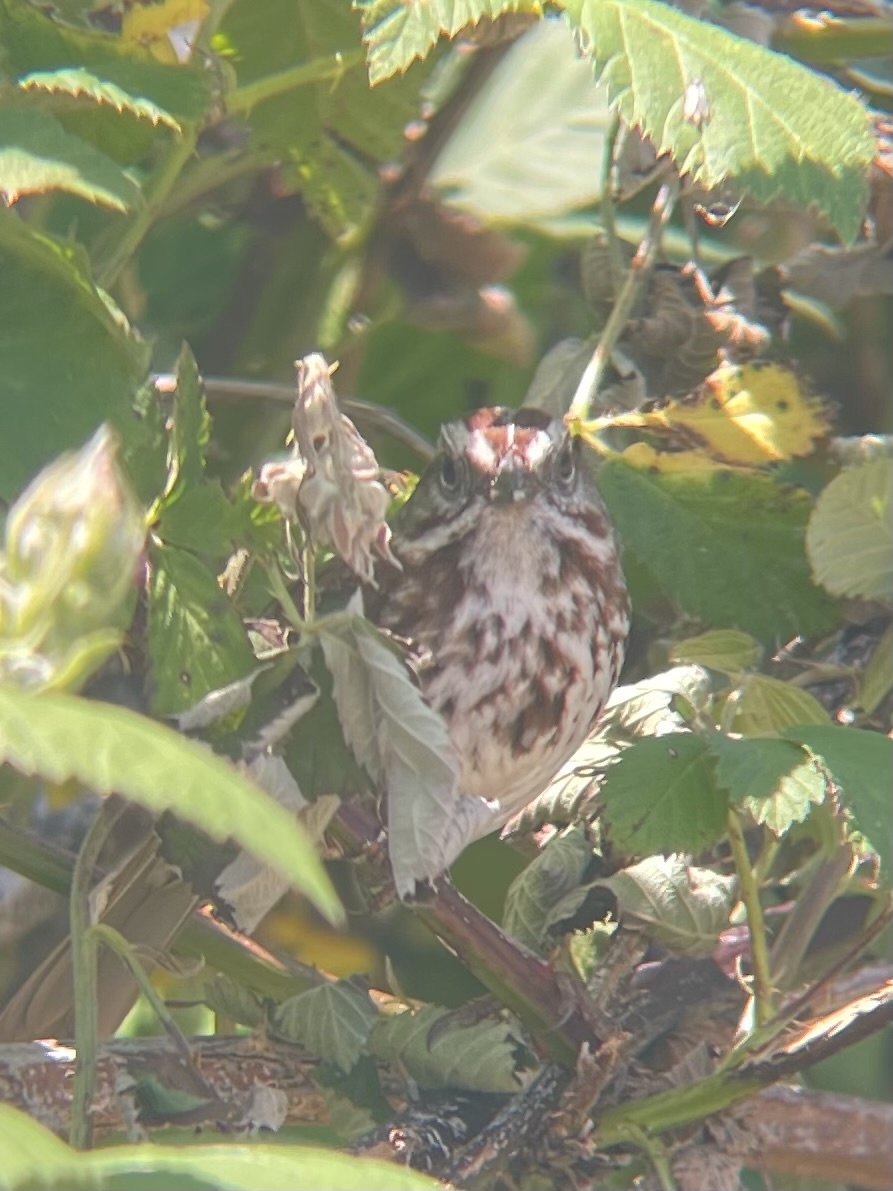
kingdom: Animalia
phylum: Chordata
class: Aves
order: Passeriformes
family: Passerellidae
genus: Melospiza
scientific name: Melospiza melodia
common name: Song sparrow
